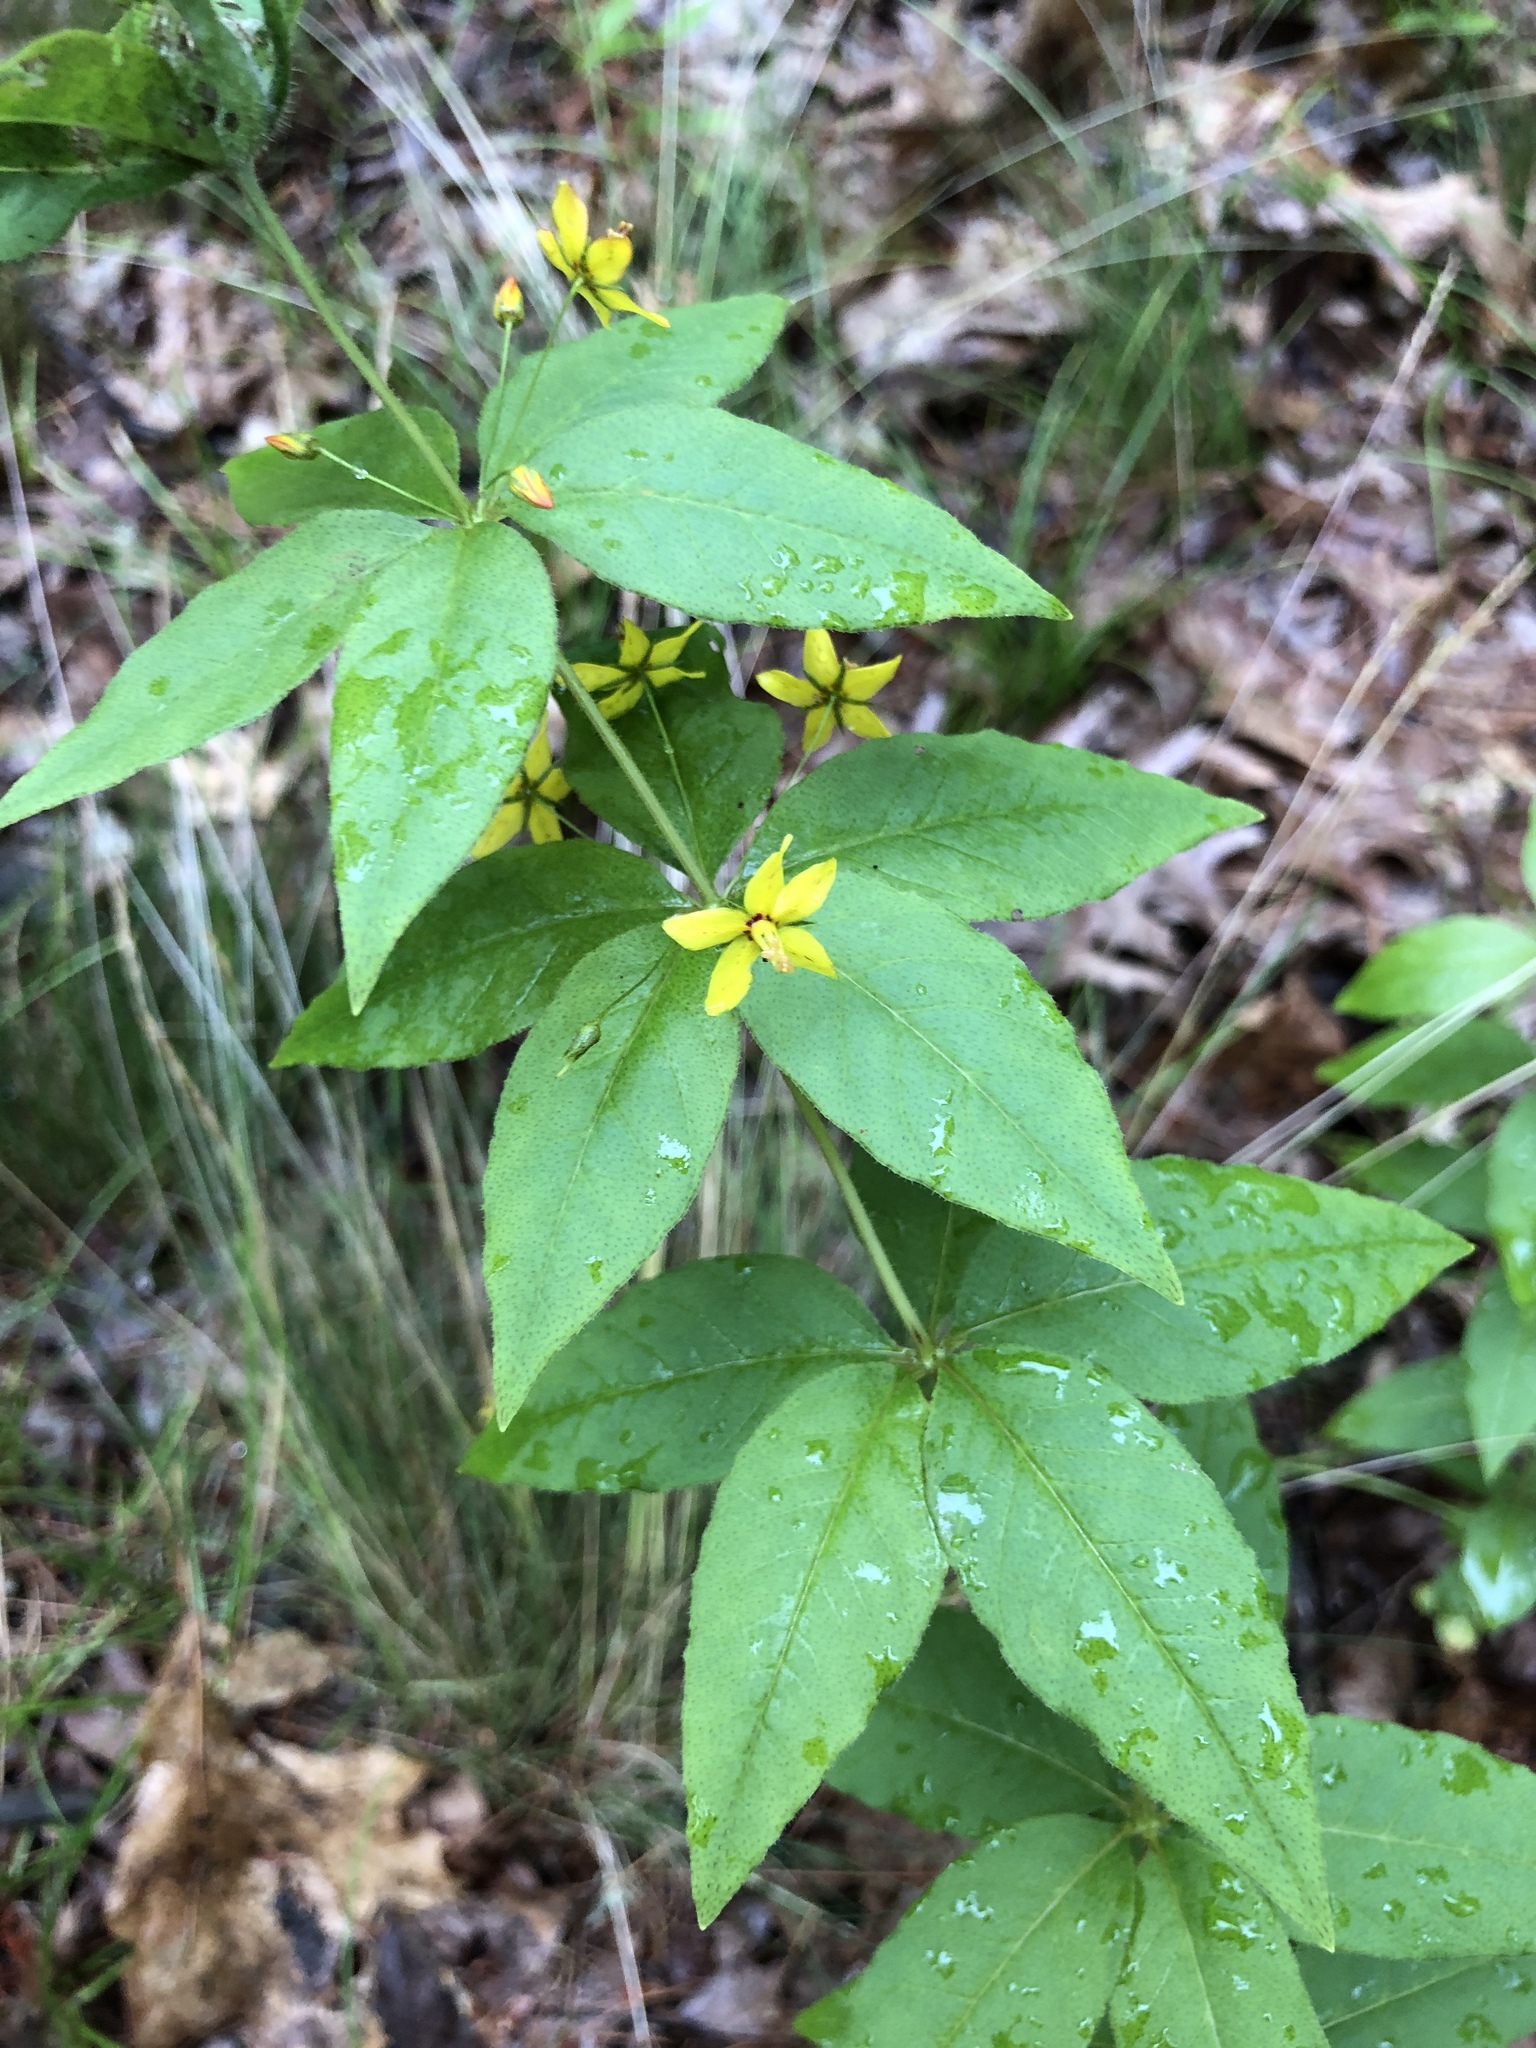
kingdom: Plantae
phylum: Tracheophyta
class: Magnoliopsida
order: Ericales
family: Primulaceae
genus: Lysimachia
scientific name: Lysimachia quadrifolia
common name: Whorled loosestrife
